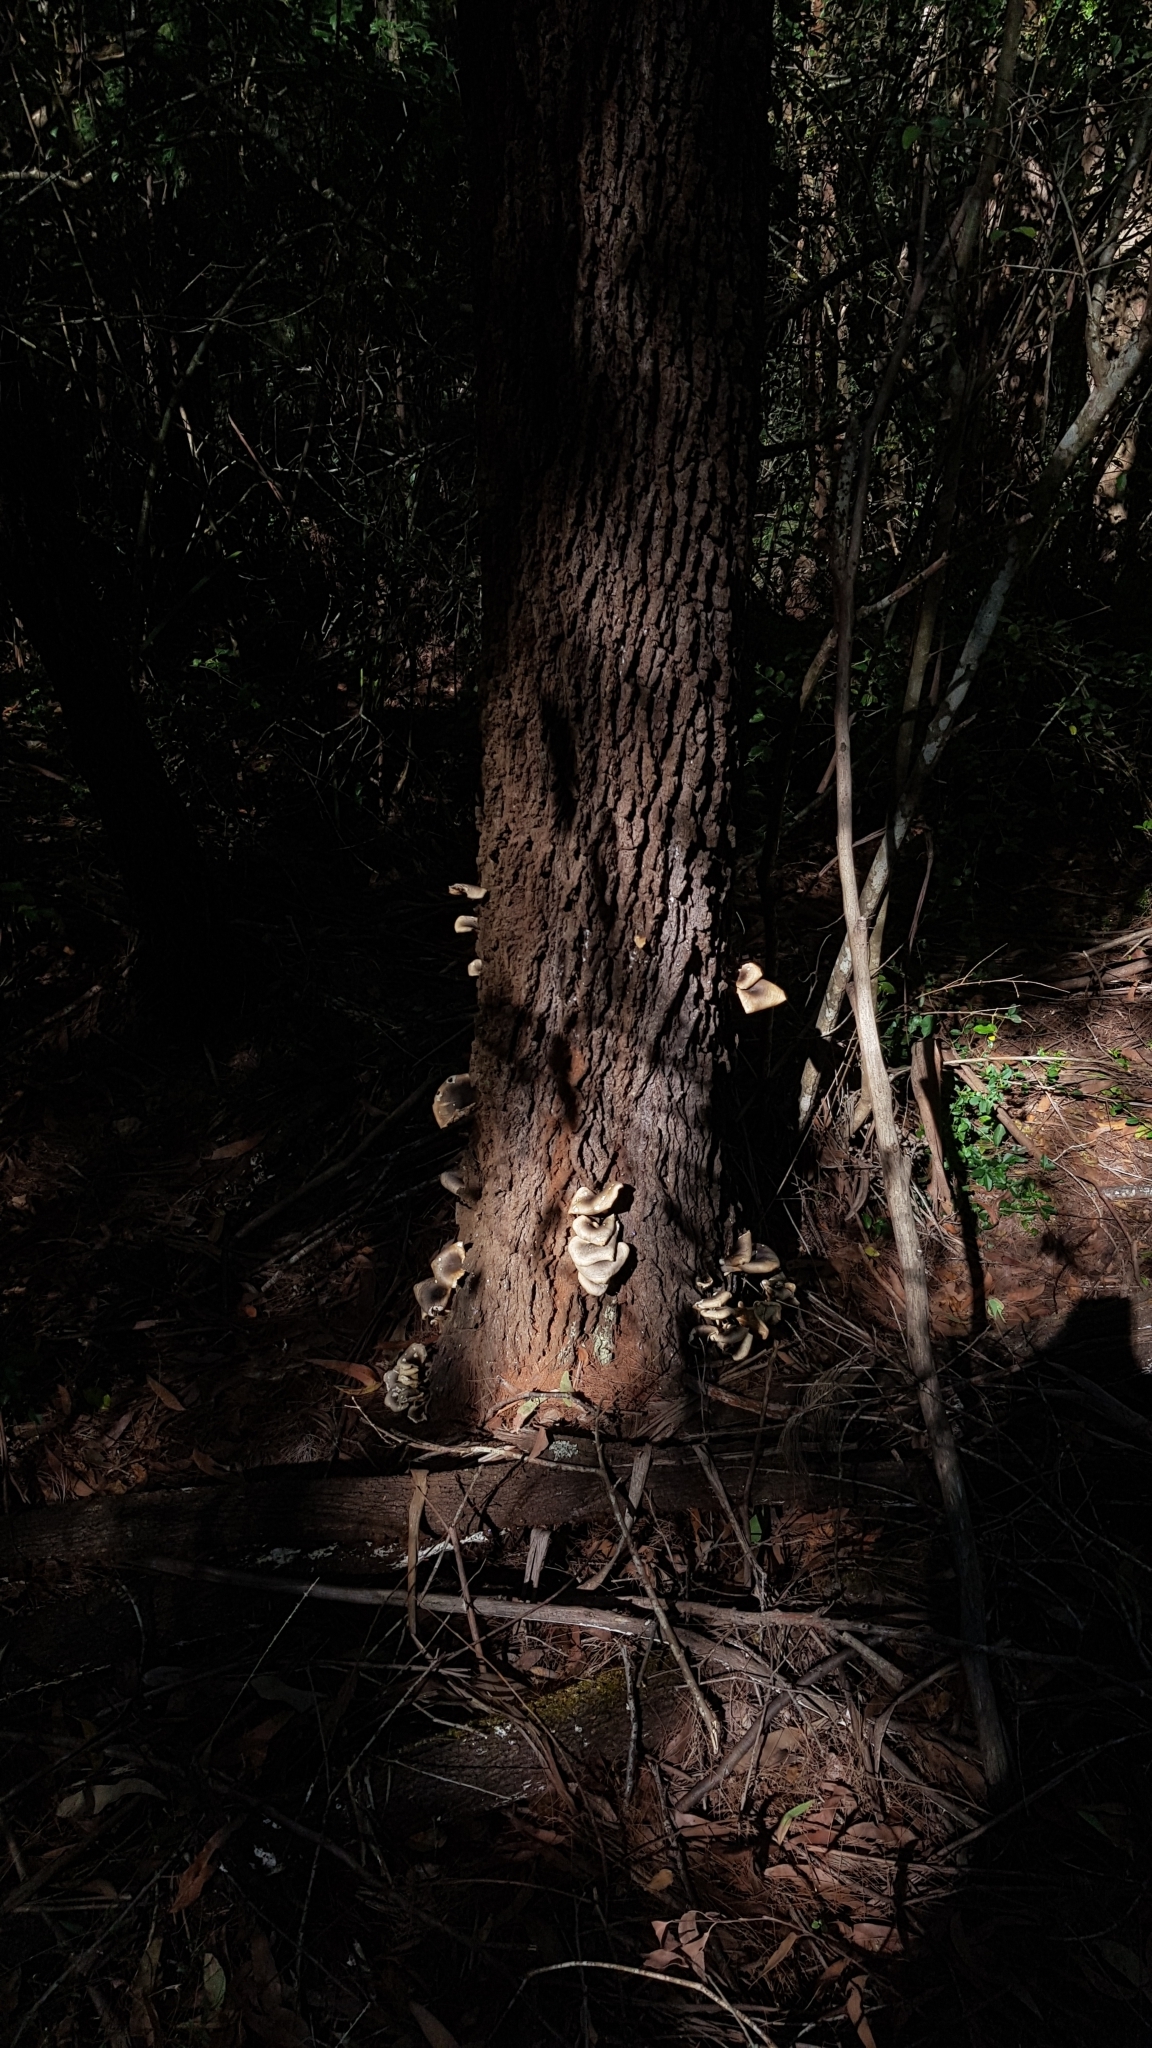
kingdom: Fungi
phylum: Basidiomycota
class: Agaricomycetes
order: Agaricales
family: Omphalotaceae
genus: Omphalotus
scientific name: Omphalotus nidiformis
